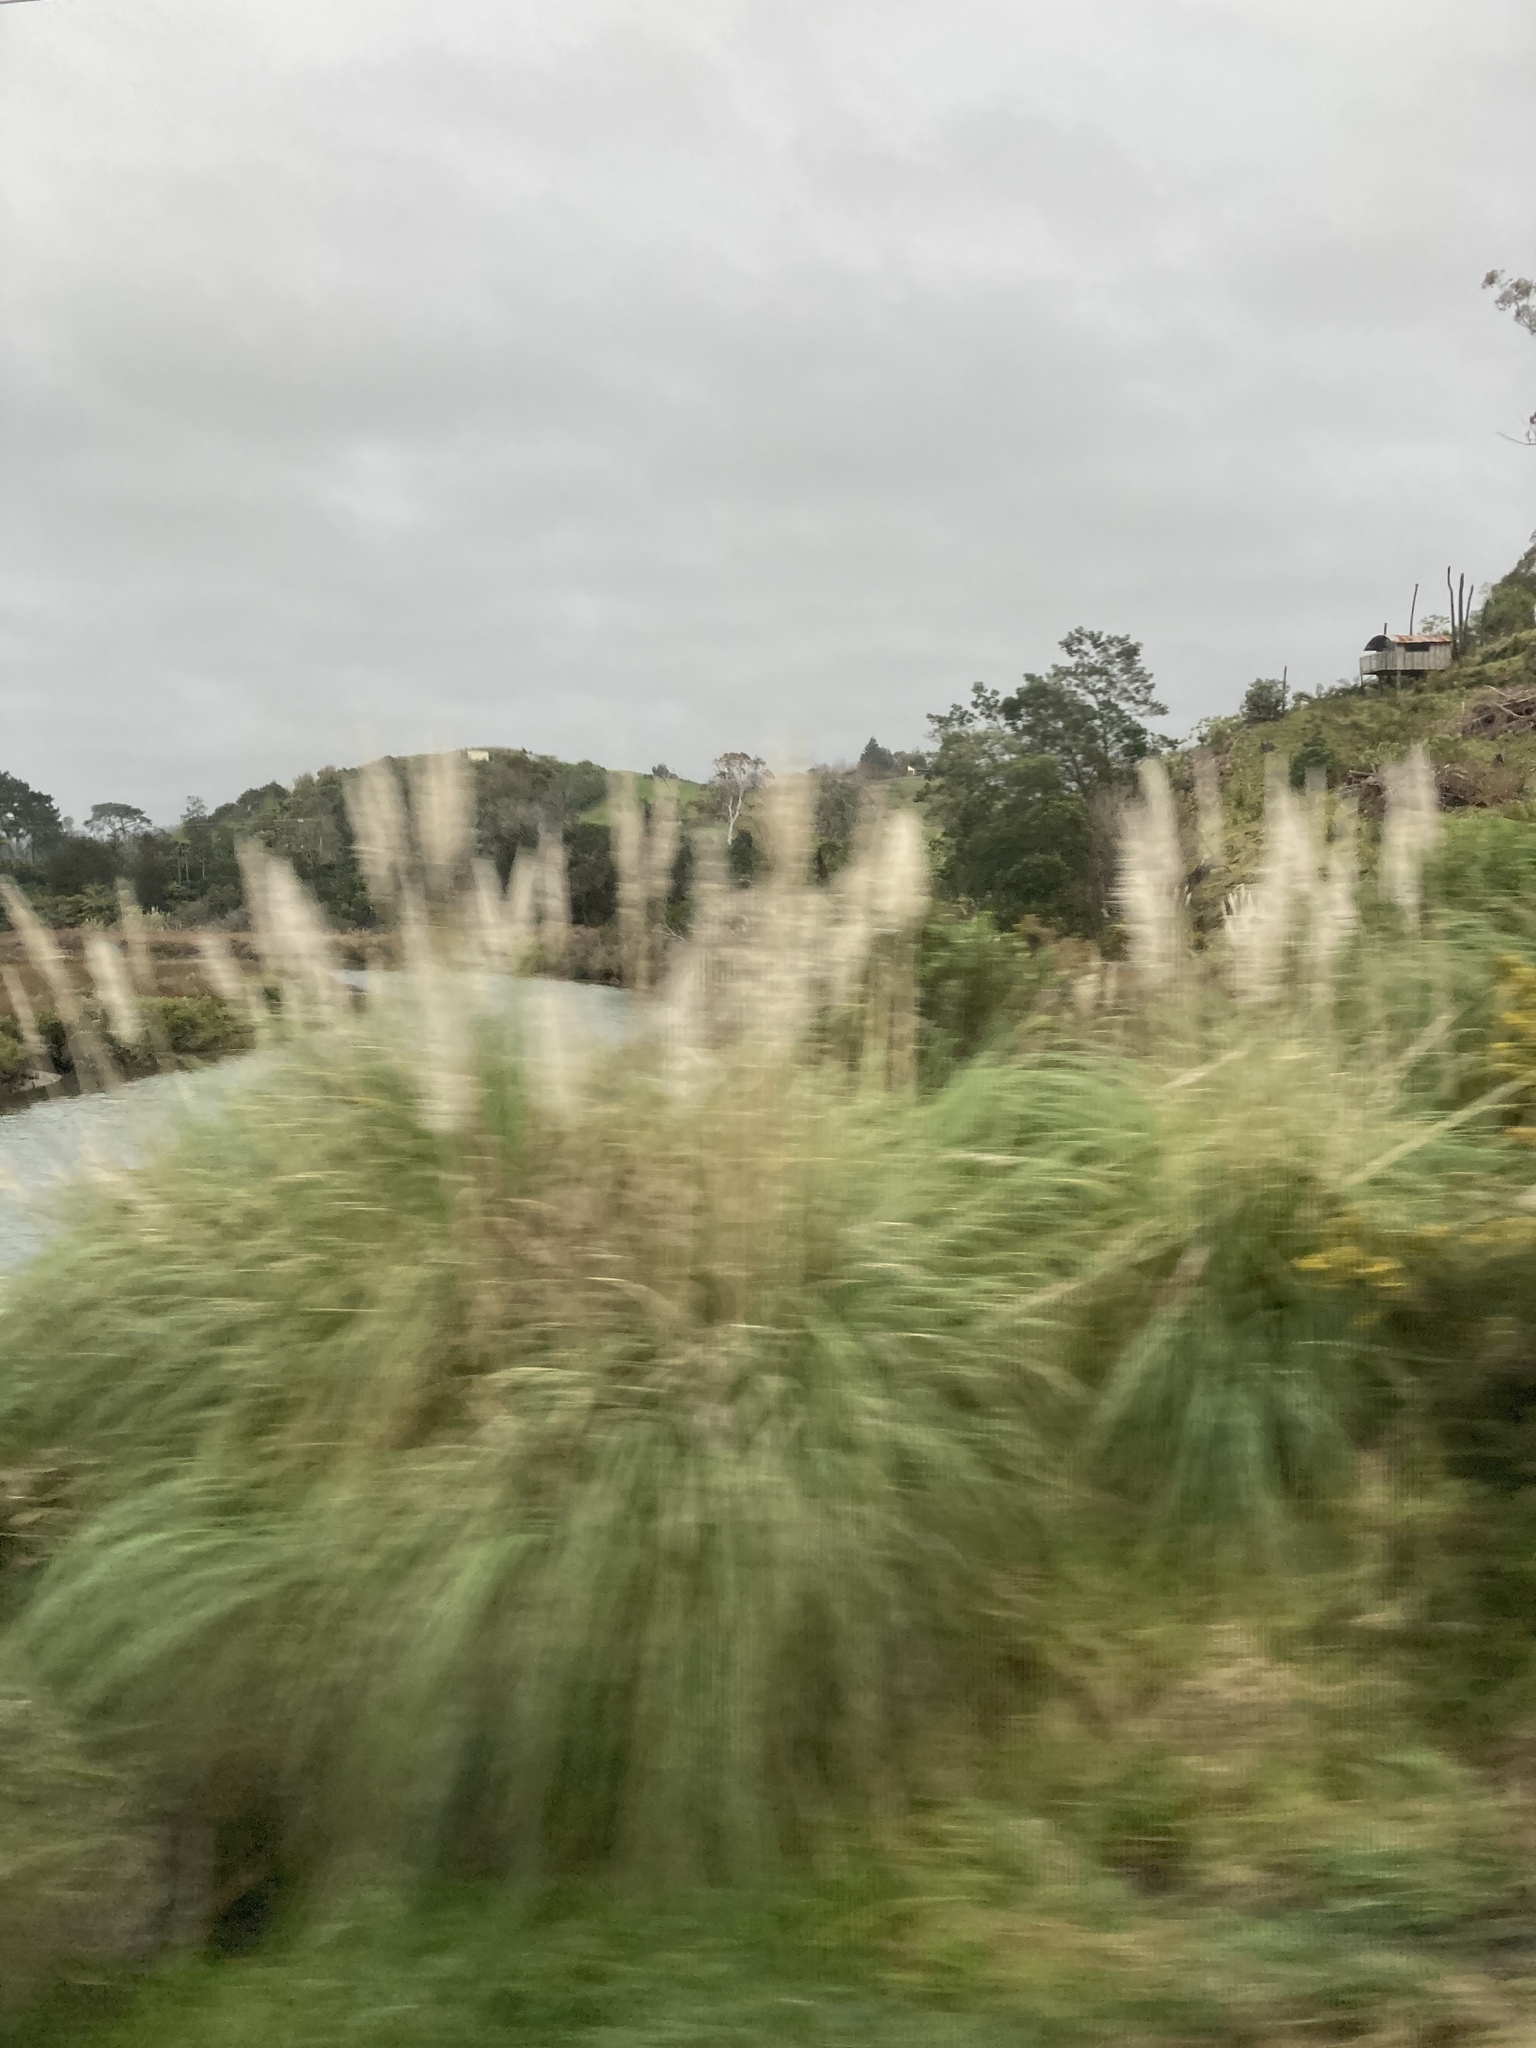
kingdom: Plantae
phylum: Tracheophyta
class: Liliopsida
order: Poales
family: Poaceae
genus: Cortaderia
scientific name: Cortaderia selloana
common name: Uruguayan pampas grass
